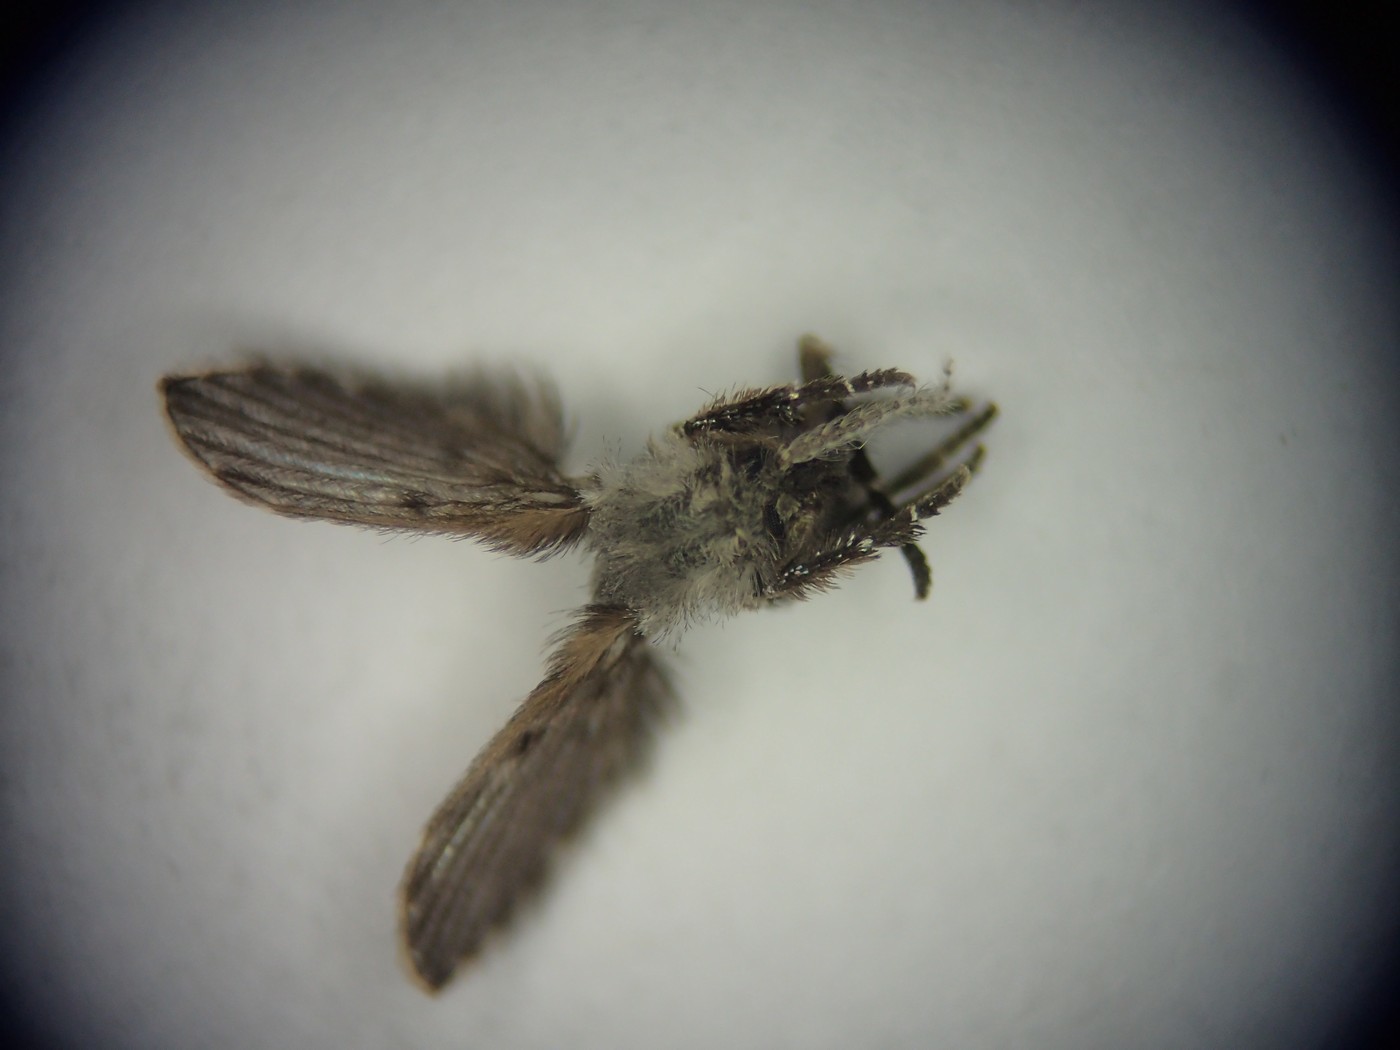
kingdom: Animalia
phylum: Arthropoda
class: Insecta
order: Diptera
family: Psychodidae
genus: Clogmia
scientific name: Clogmia albipunctatus
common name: White-spotted moth fly
